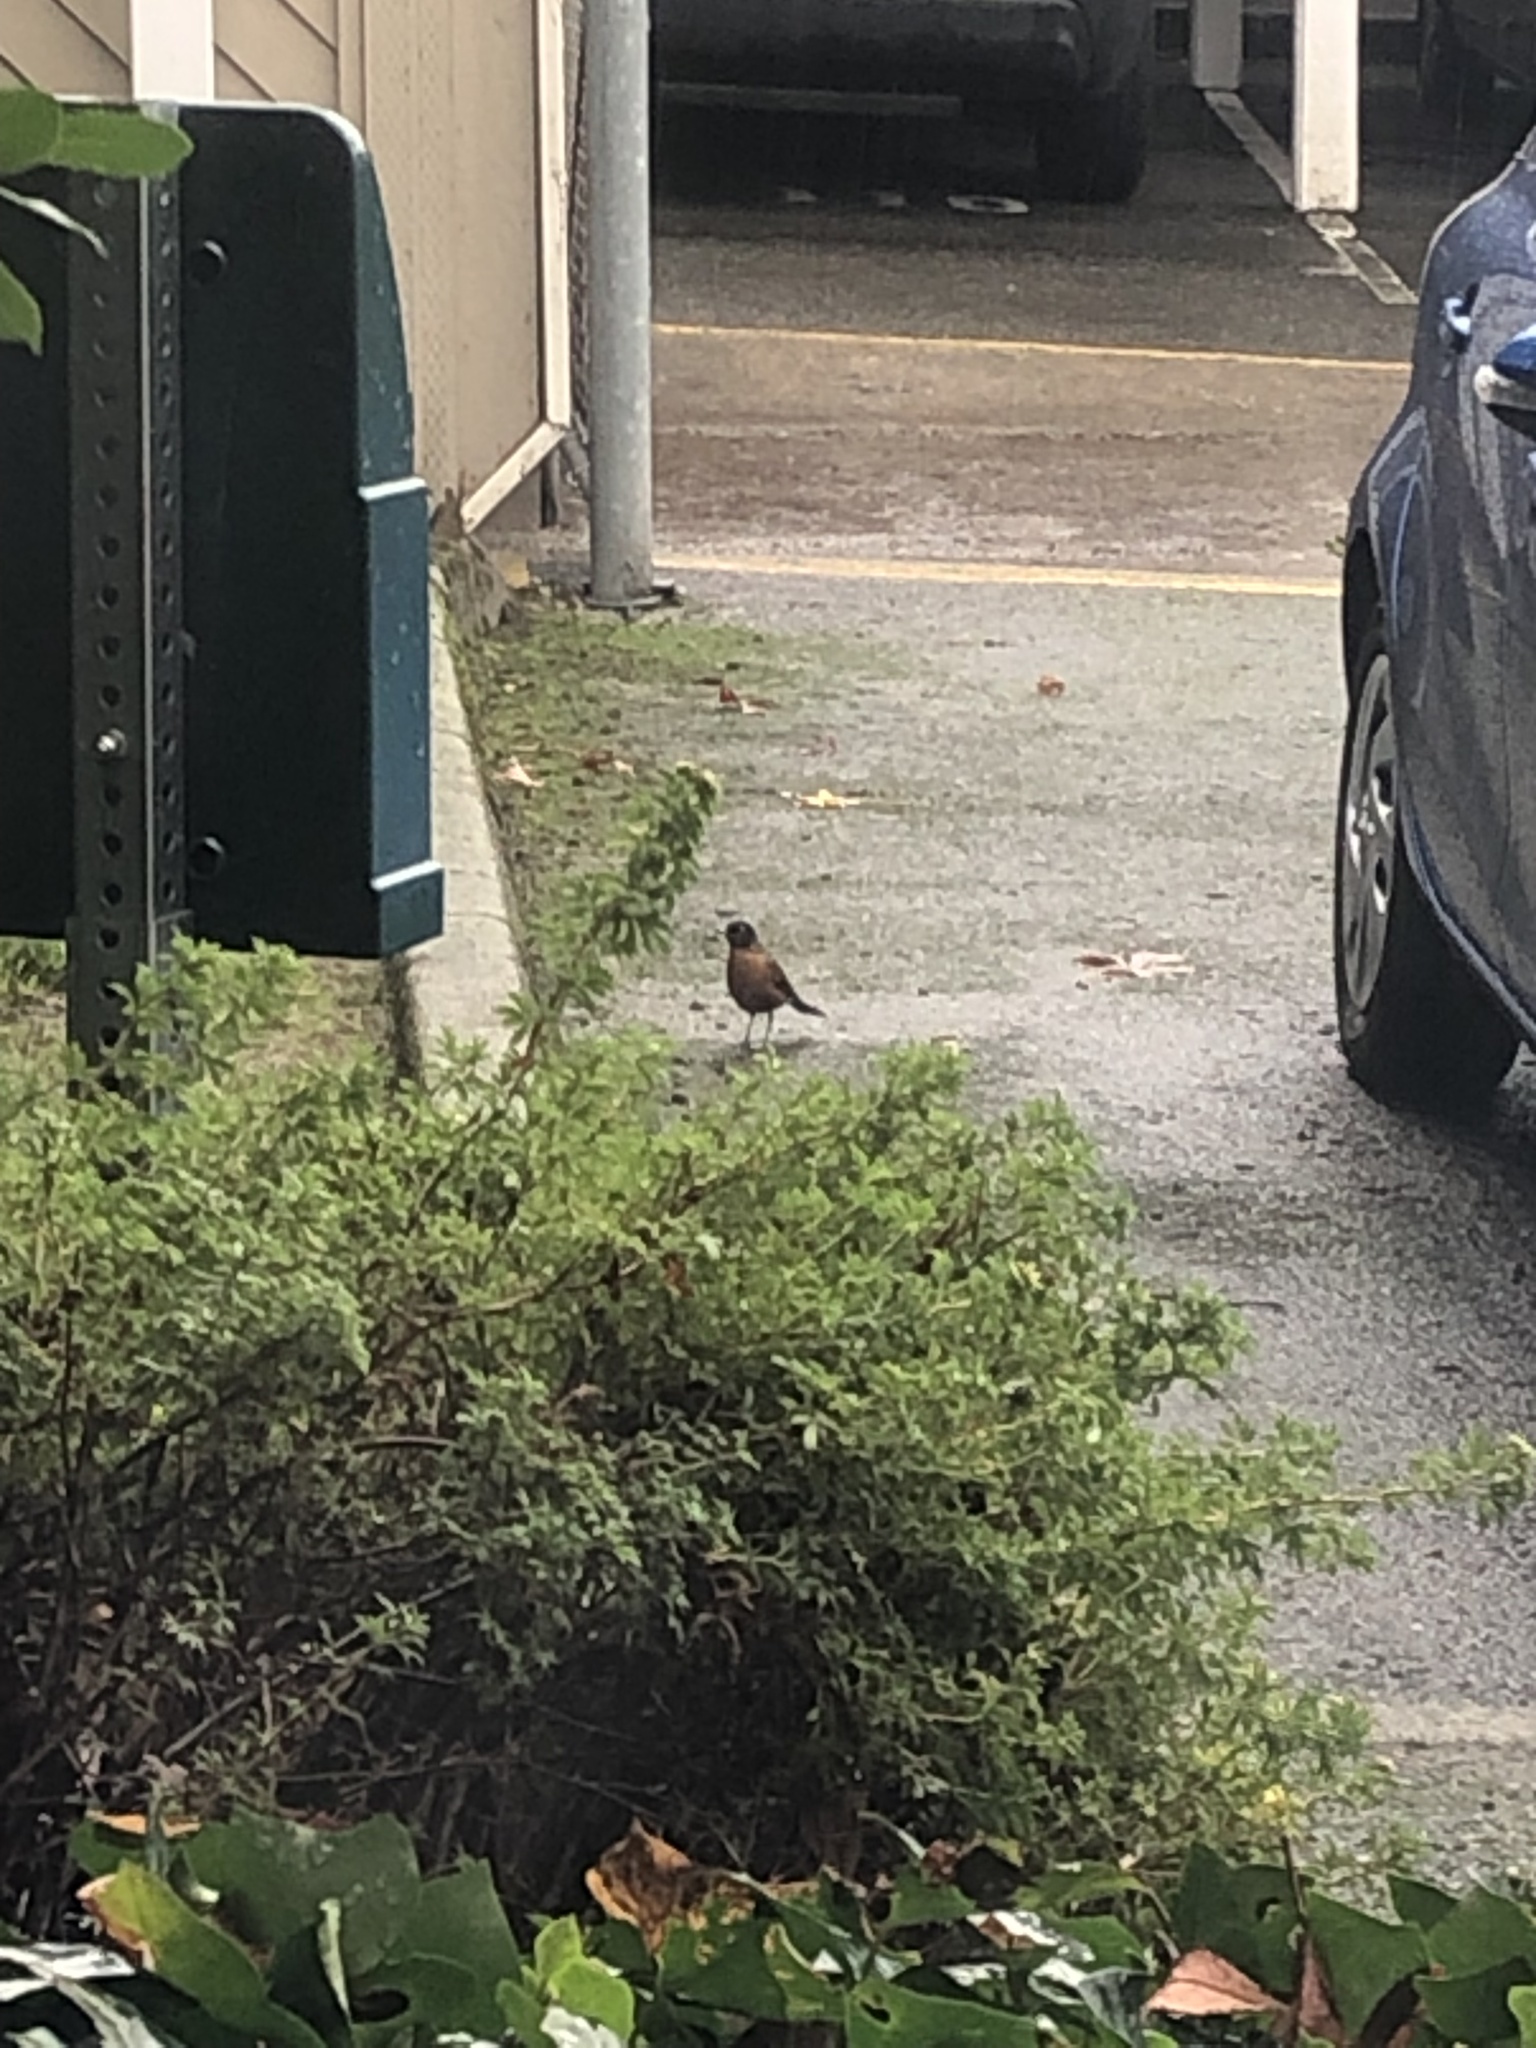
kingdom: Animalia
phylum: Chordata
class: Aves
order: Passeriformes
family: Turdidae
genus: Turdus
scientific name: Turdus migratorius
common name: American robin
